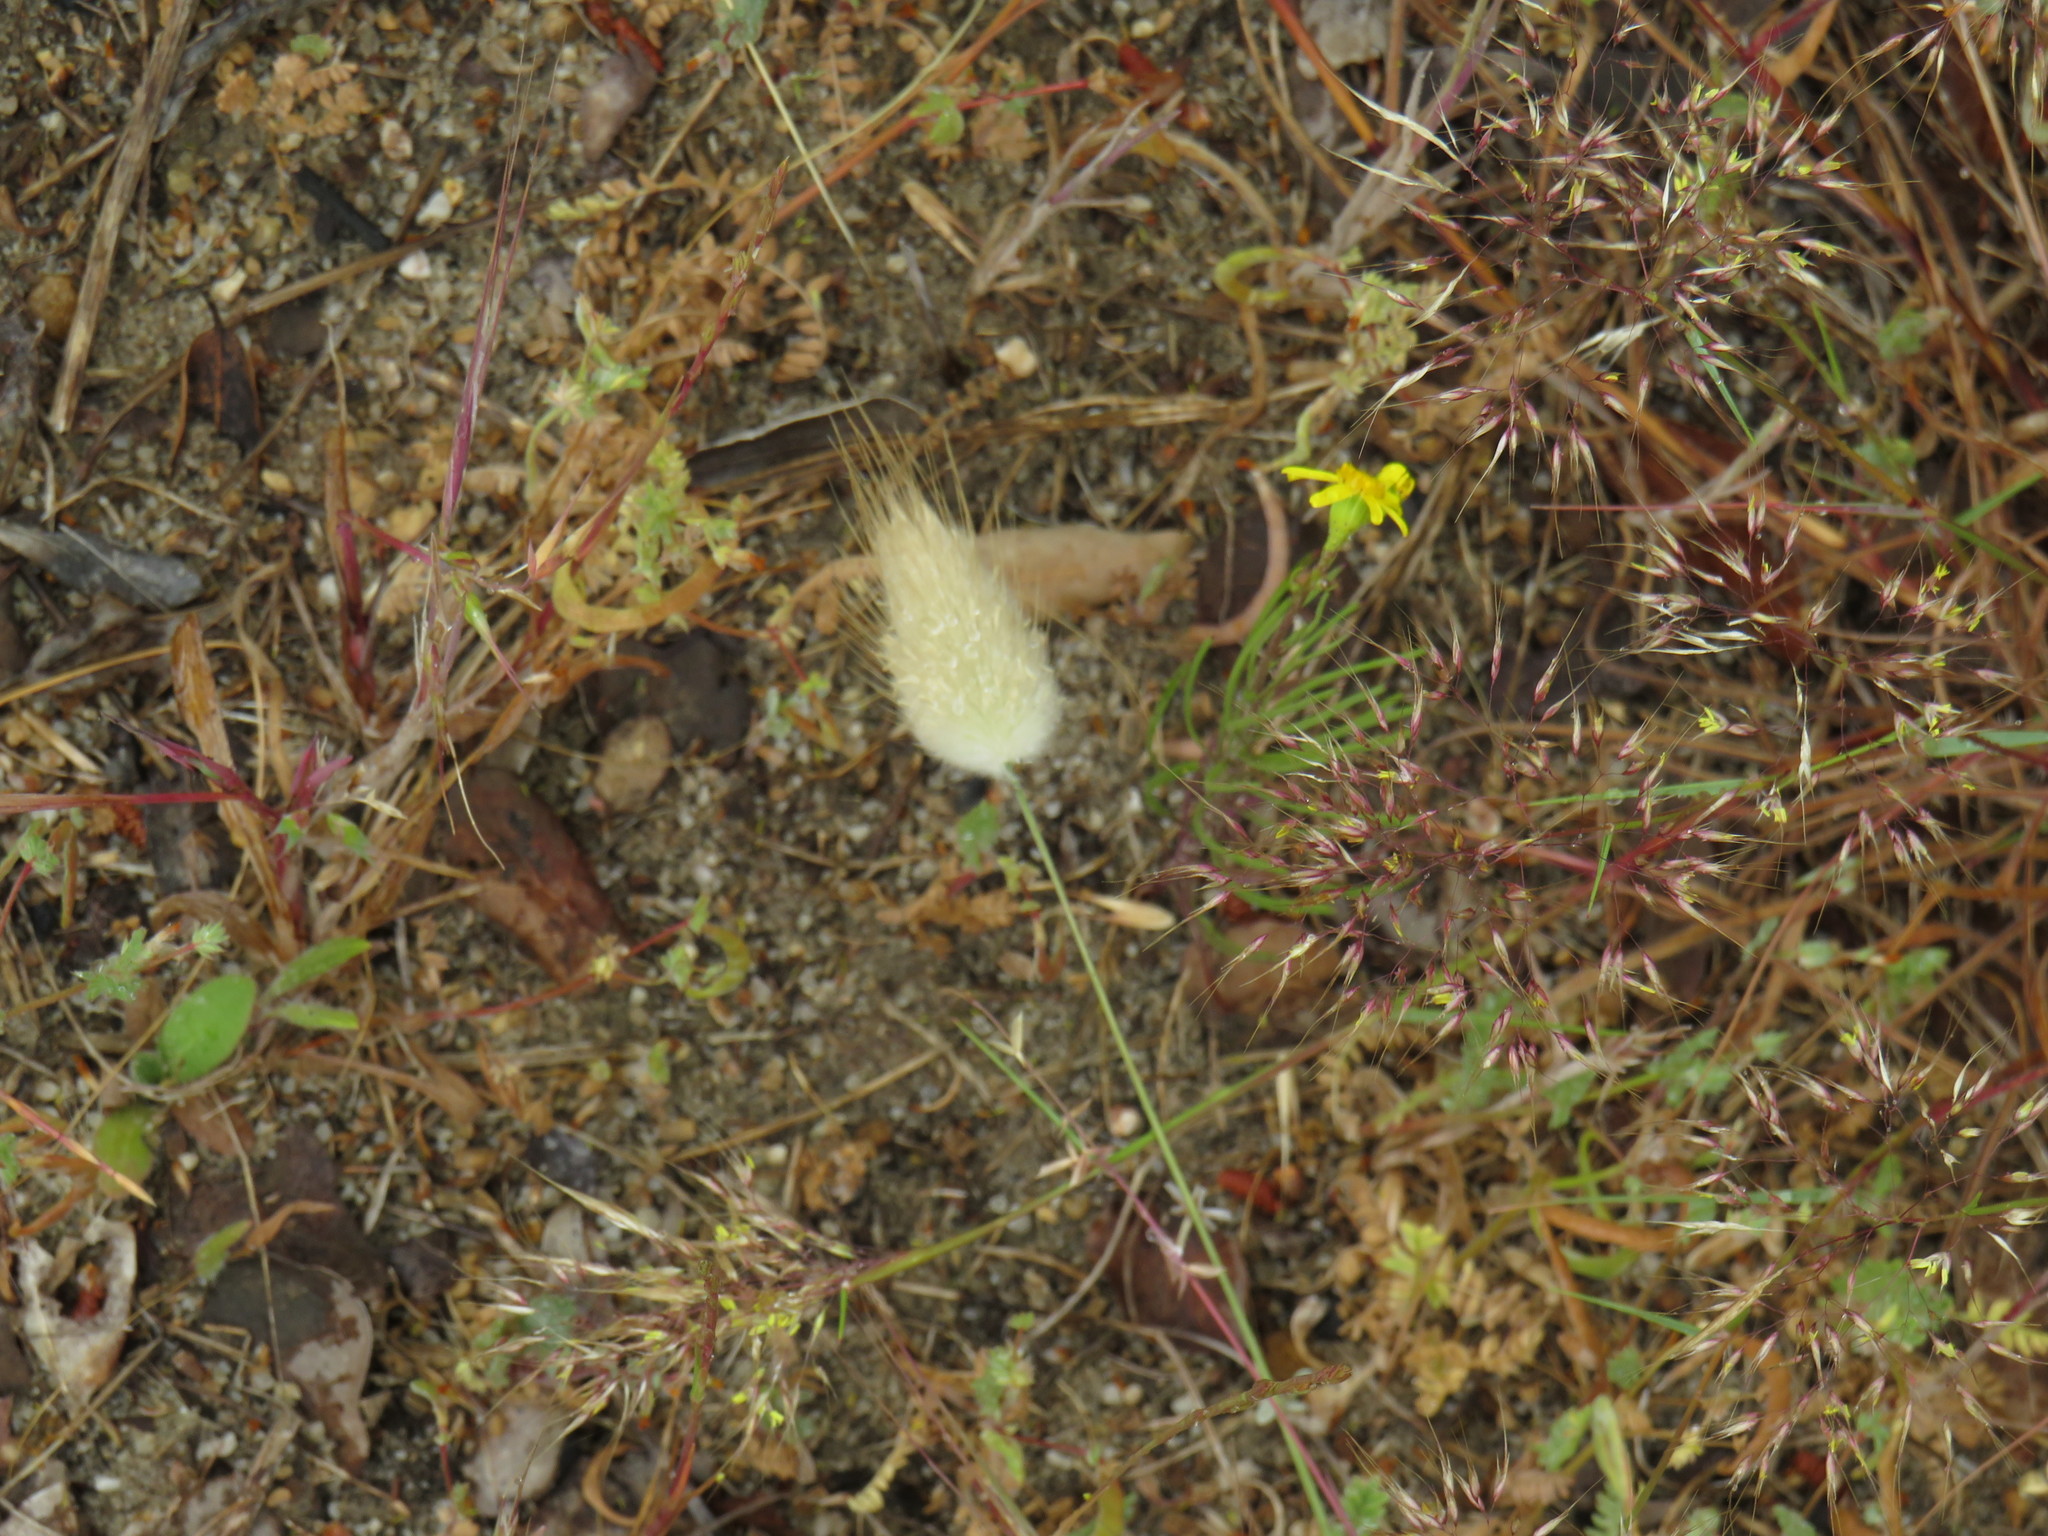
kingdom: Plantae
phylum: Tracheophyta
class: Liliopsida
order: Poales
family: Poaceae
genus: Lagurus
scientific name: Lagurus ovatus
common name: Hare's-tail
